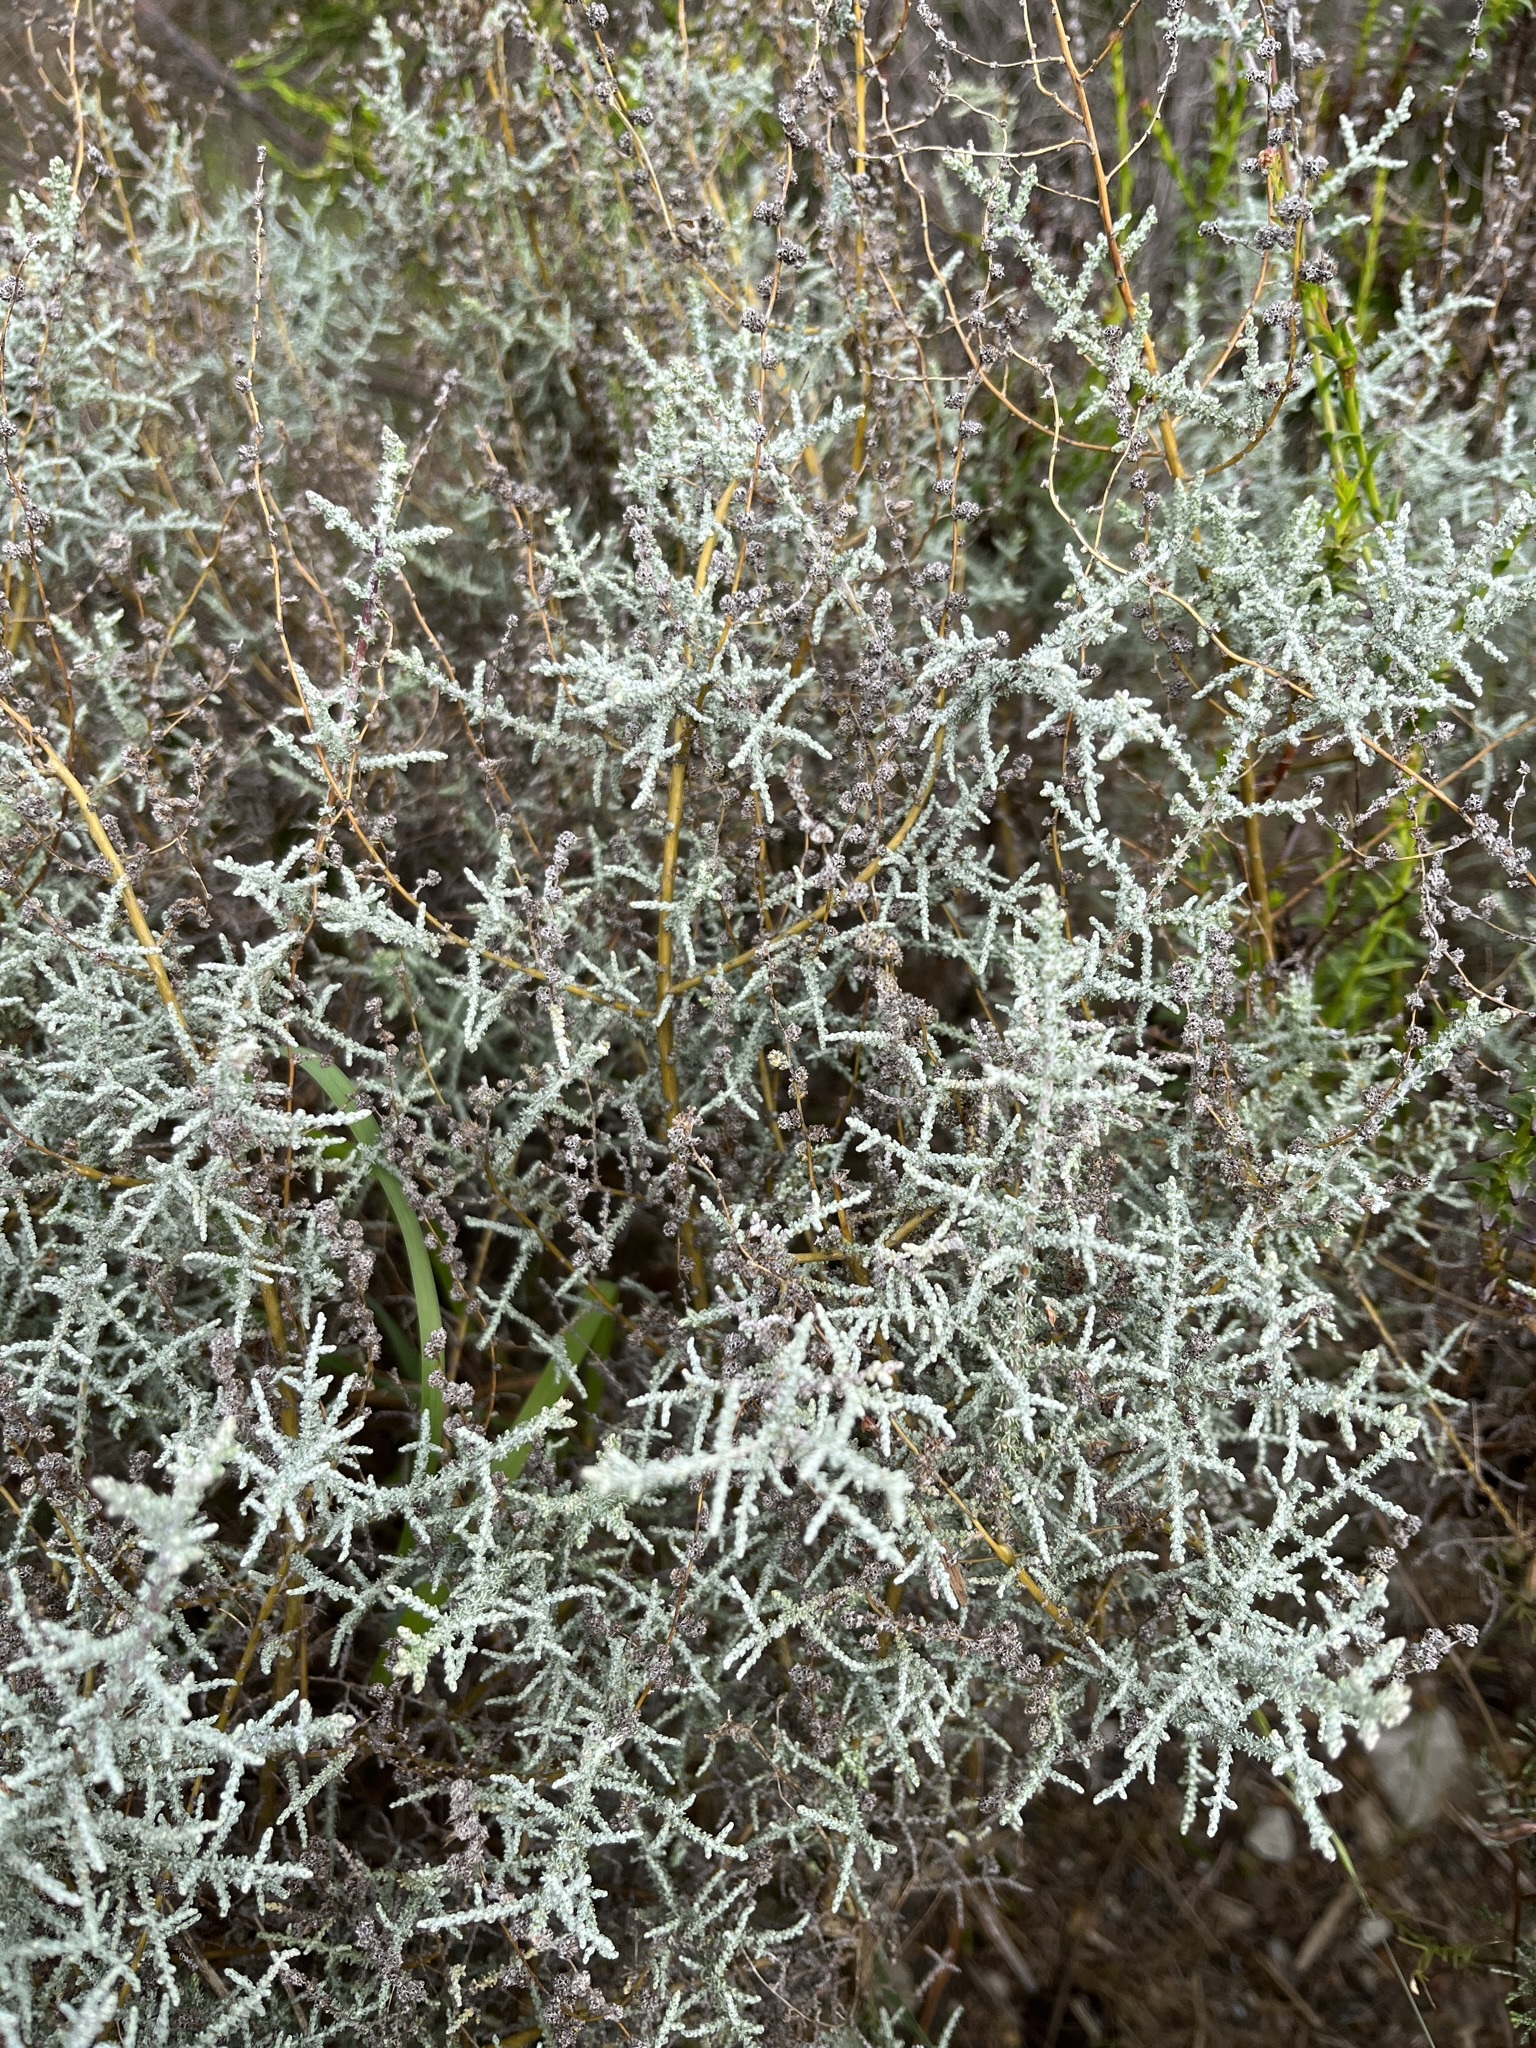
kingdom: Plantae
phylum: Tracheophyta
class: Magnoliopsida
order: Asterales
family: Asteraceae
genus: Seriphium
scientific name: Seriphium plumosum
